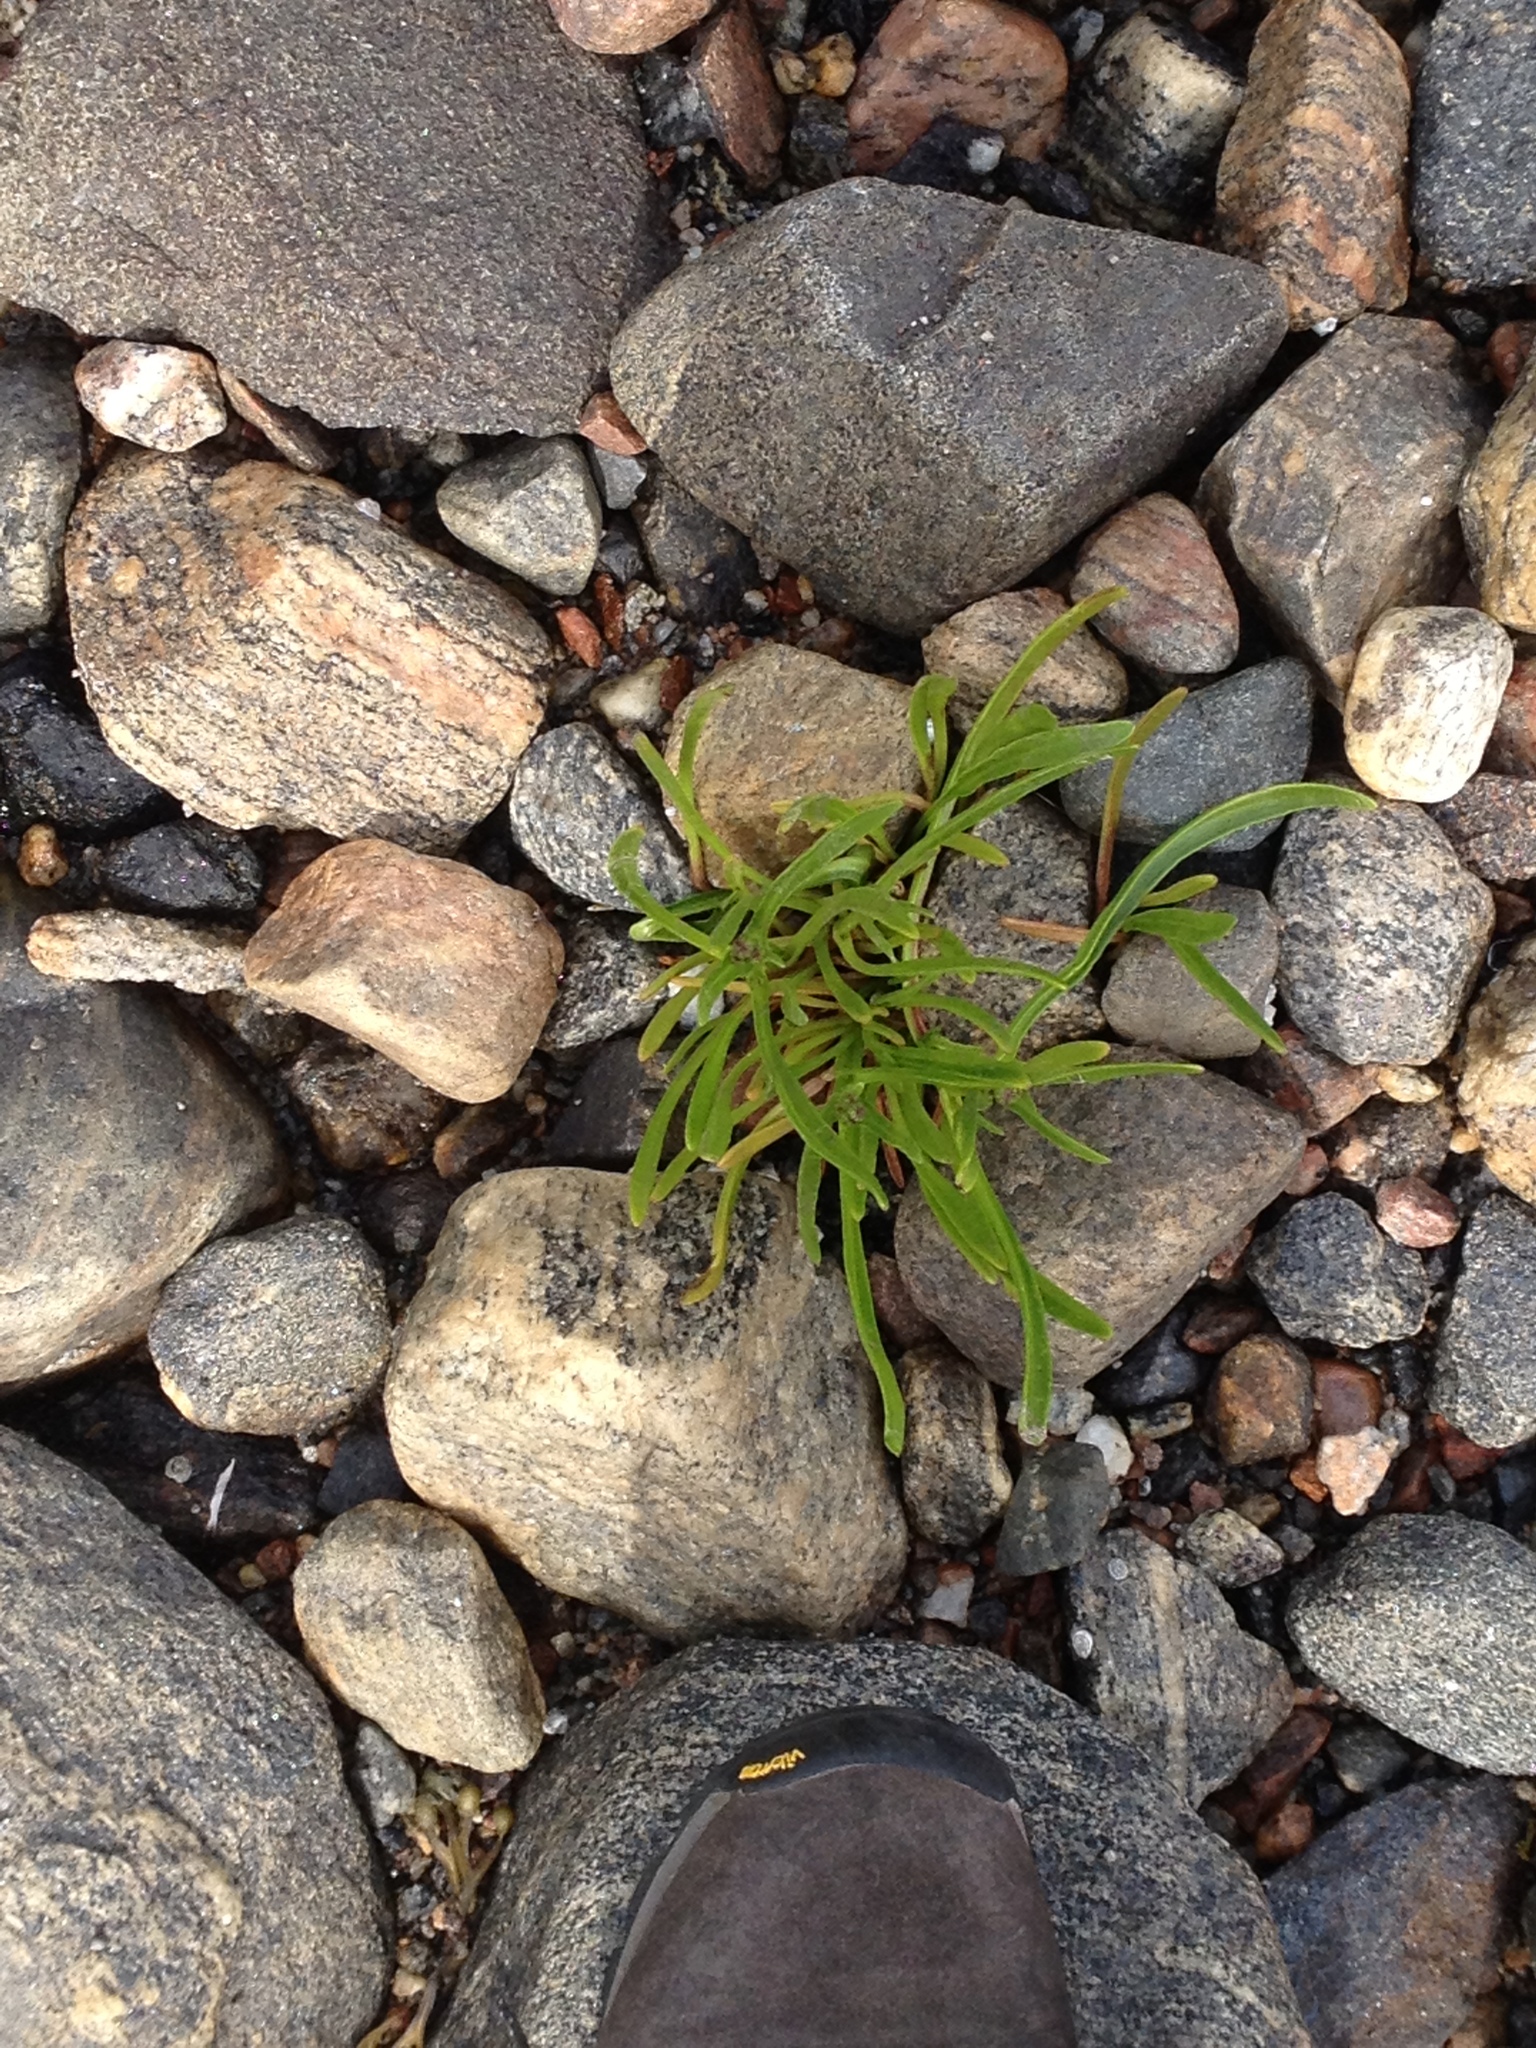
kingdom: Plantae
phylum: Tracheophyta
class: Magnoliopsida
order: Asterales
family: Asteraceae
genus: Tripolium
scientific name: Tripolium pannonicum
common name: Sea aster
